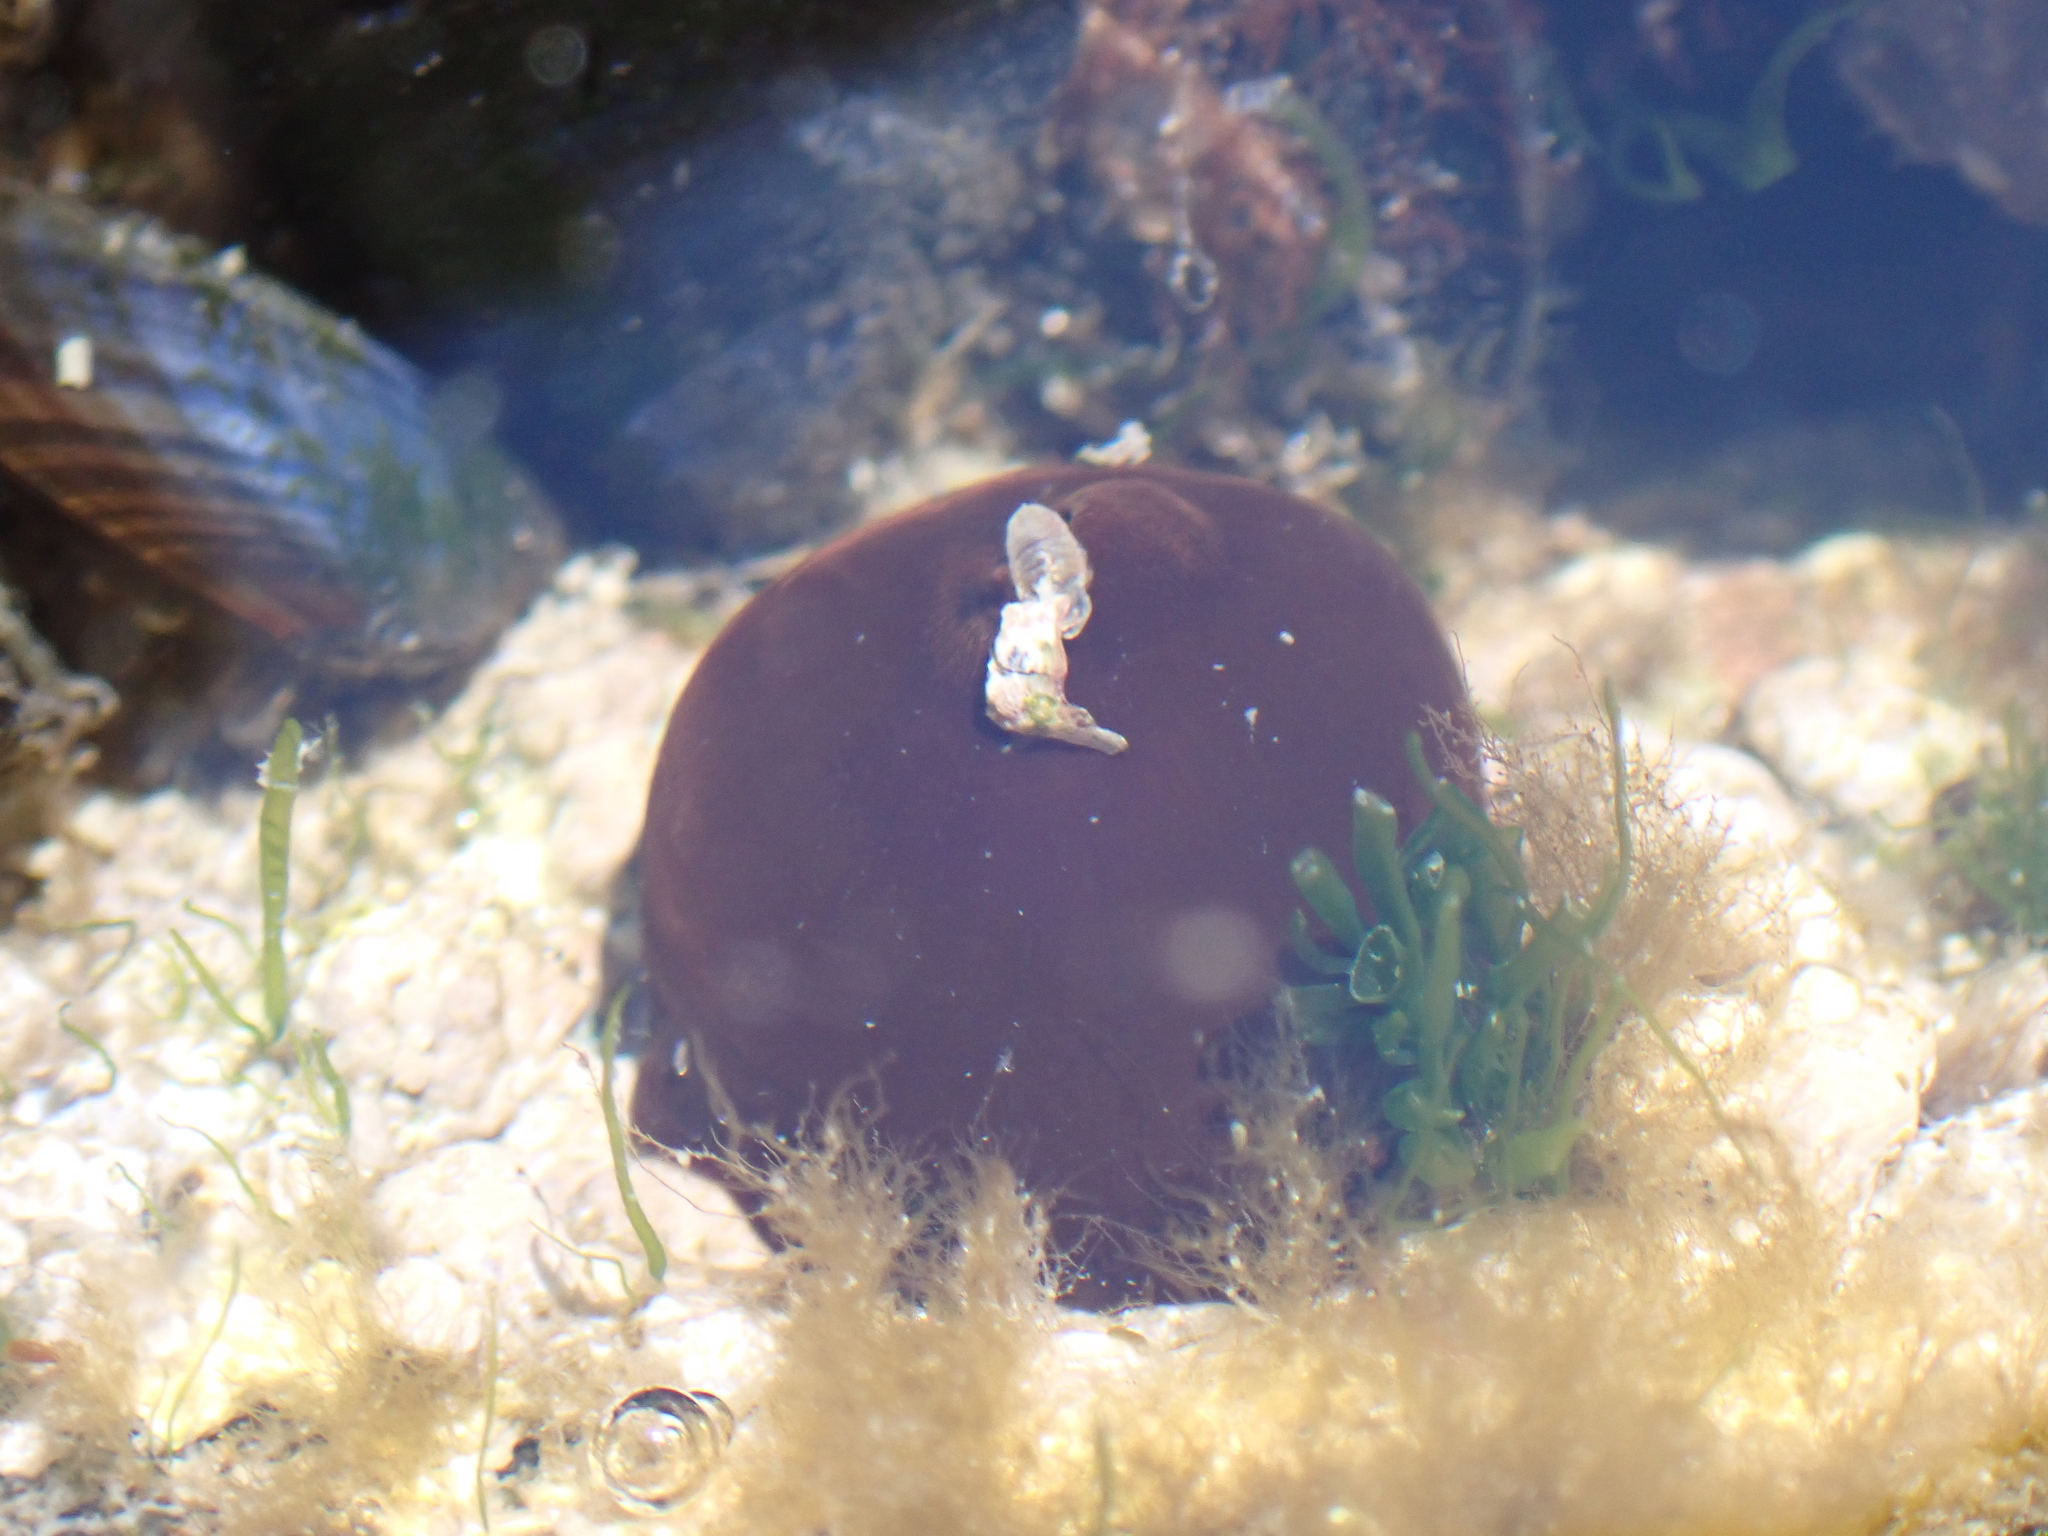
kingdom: Animalia
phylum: Cnidaria
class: Anthozoa
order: Actiniaria
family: Actiniidae
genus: Actinia
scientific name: Actinia equina
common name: Beadlet anemone
